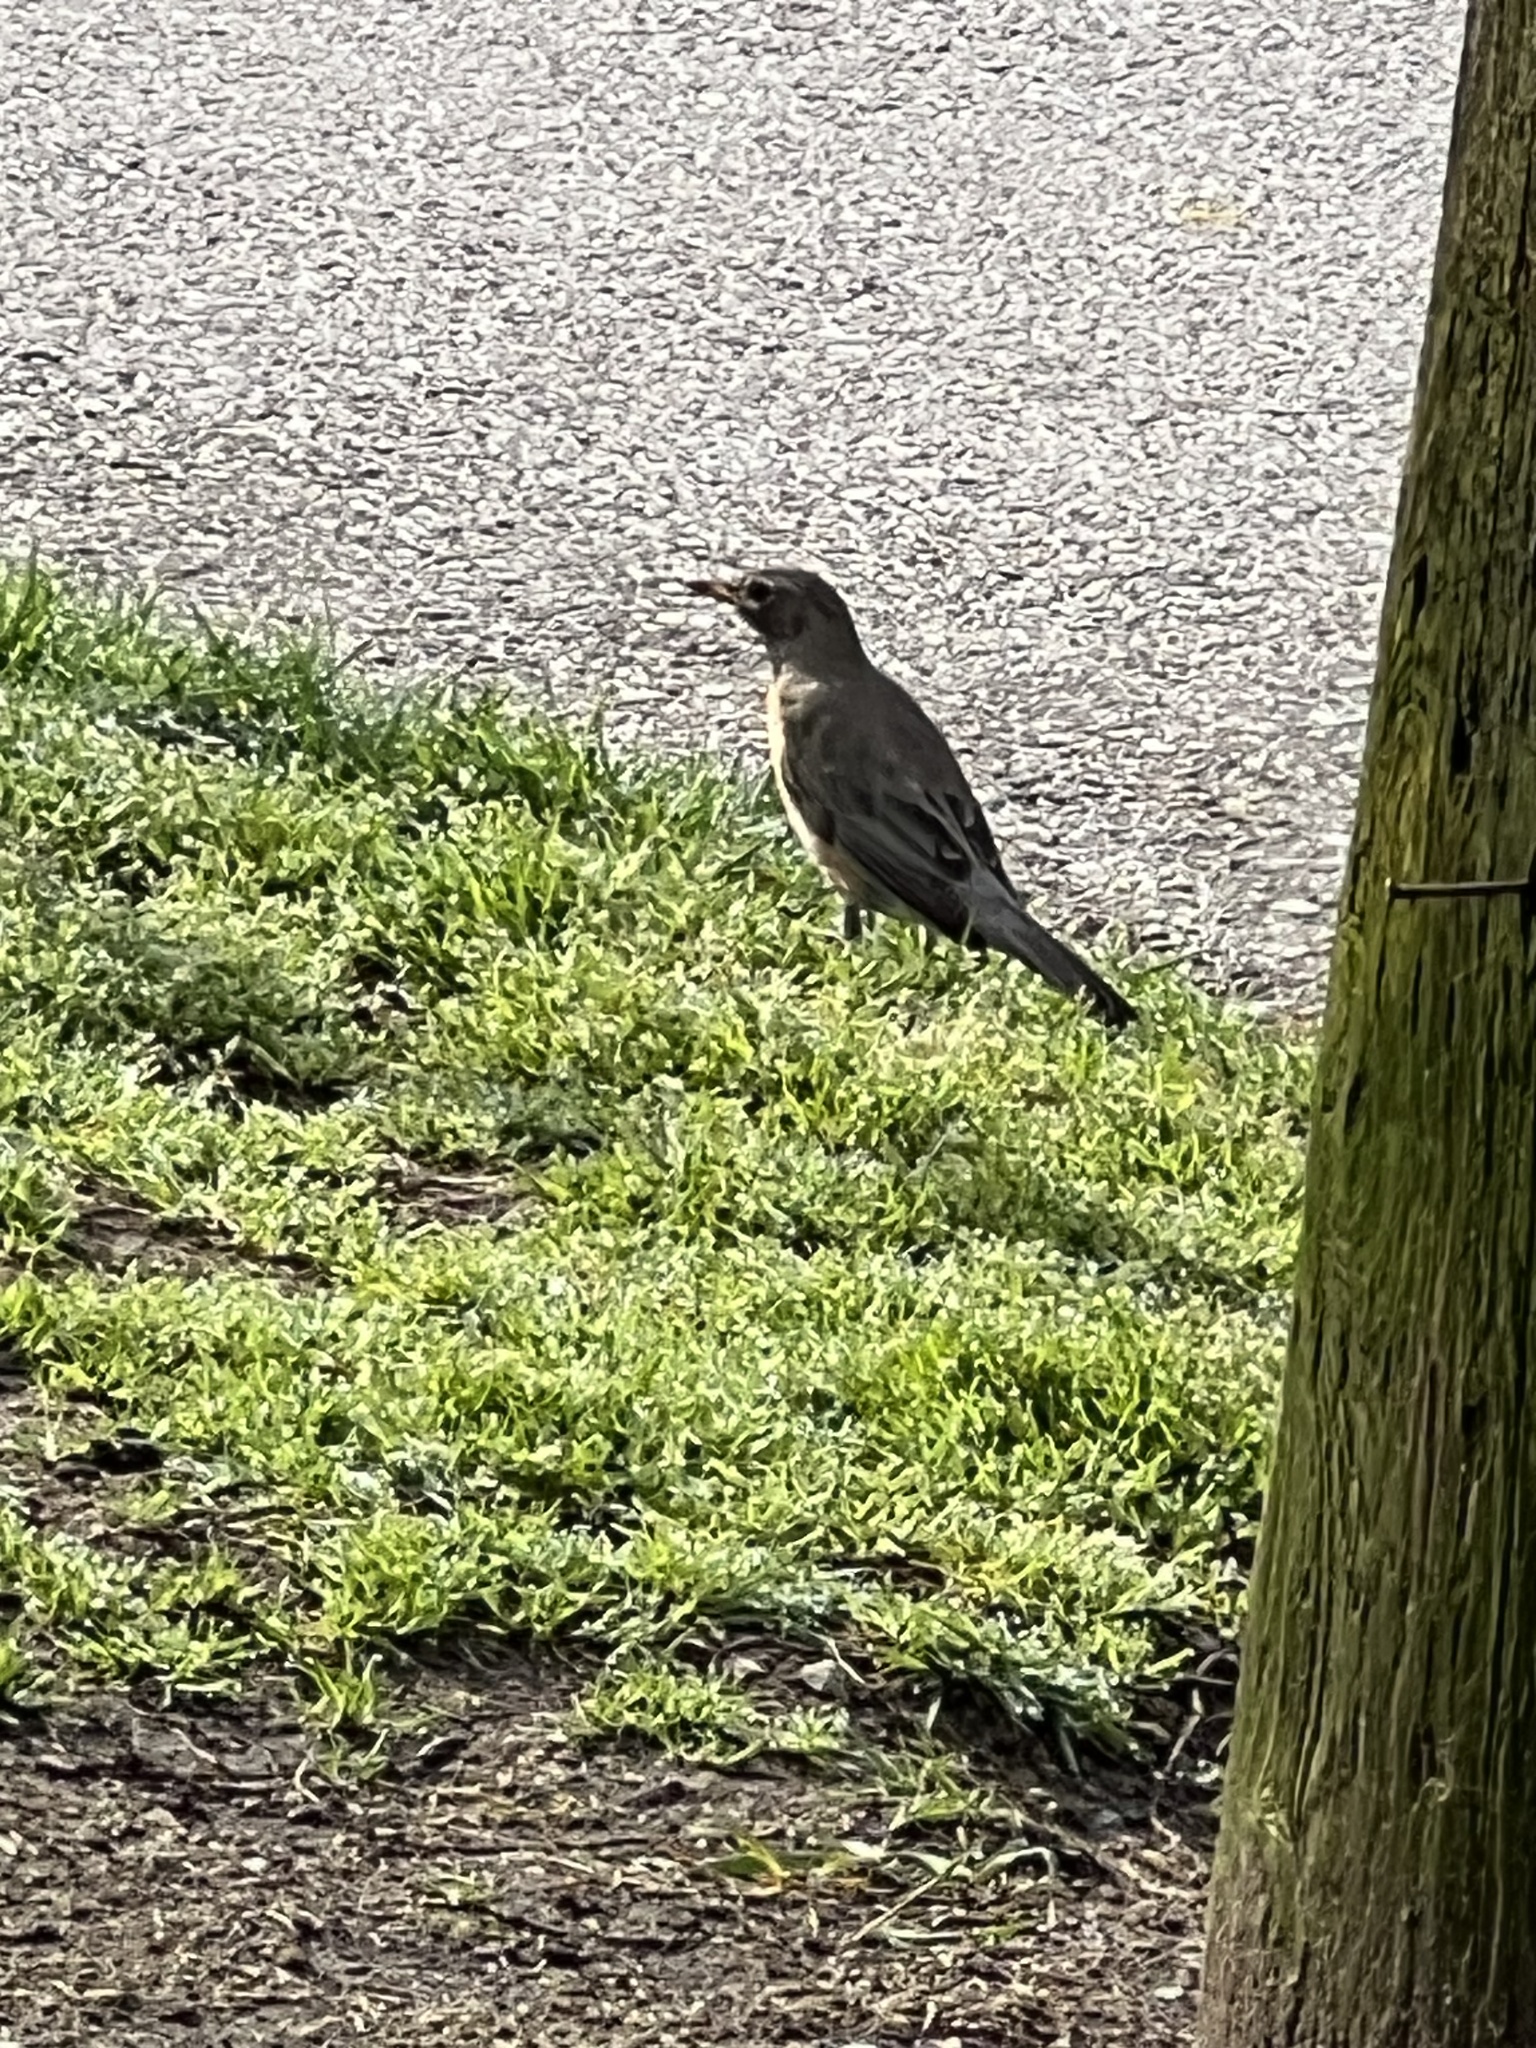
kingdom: Animalia
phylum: Chordata
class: Aves
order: Passeriformes
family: Turdidae
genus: Turdus
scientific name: Turdus migratorius
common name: American robin
